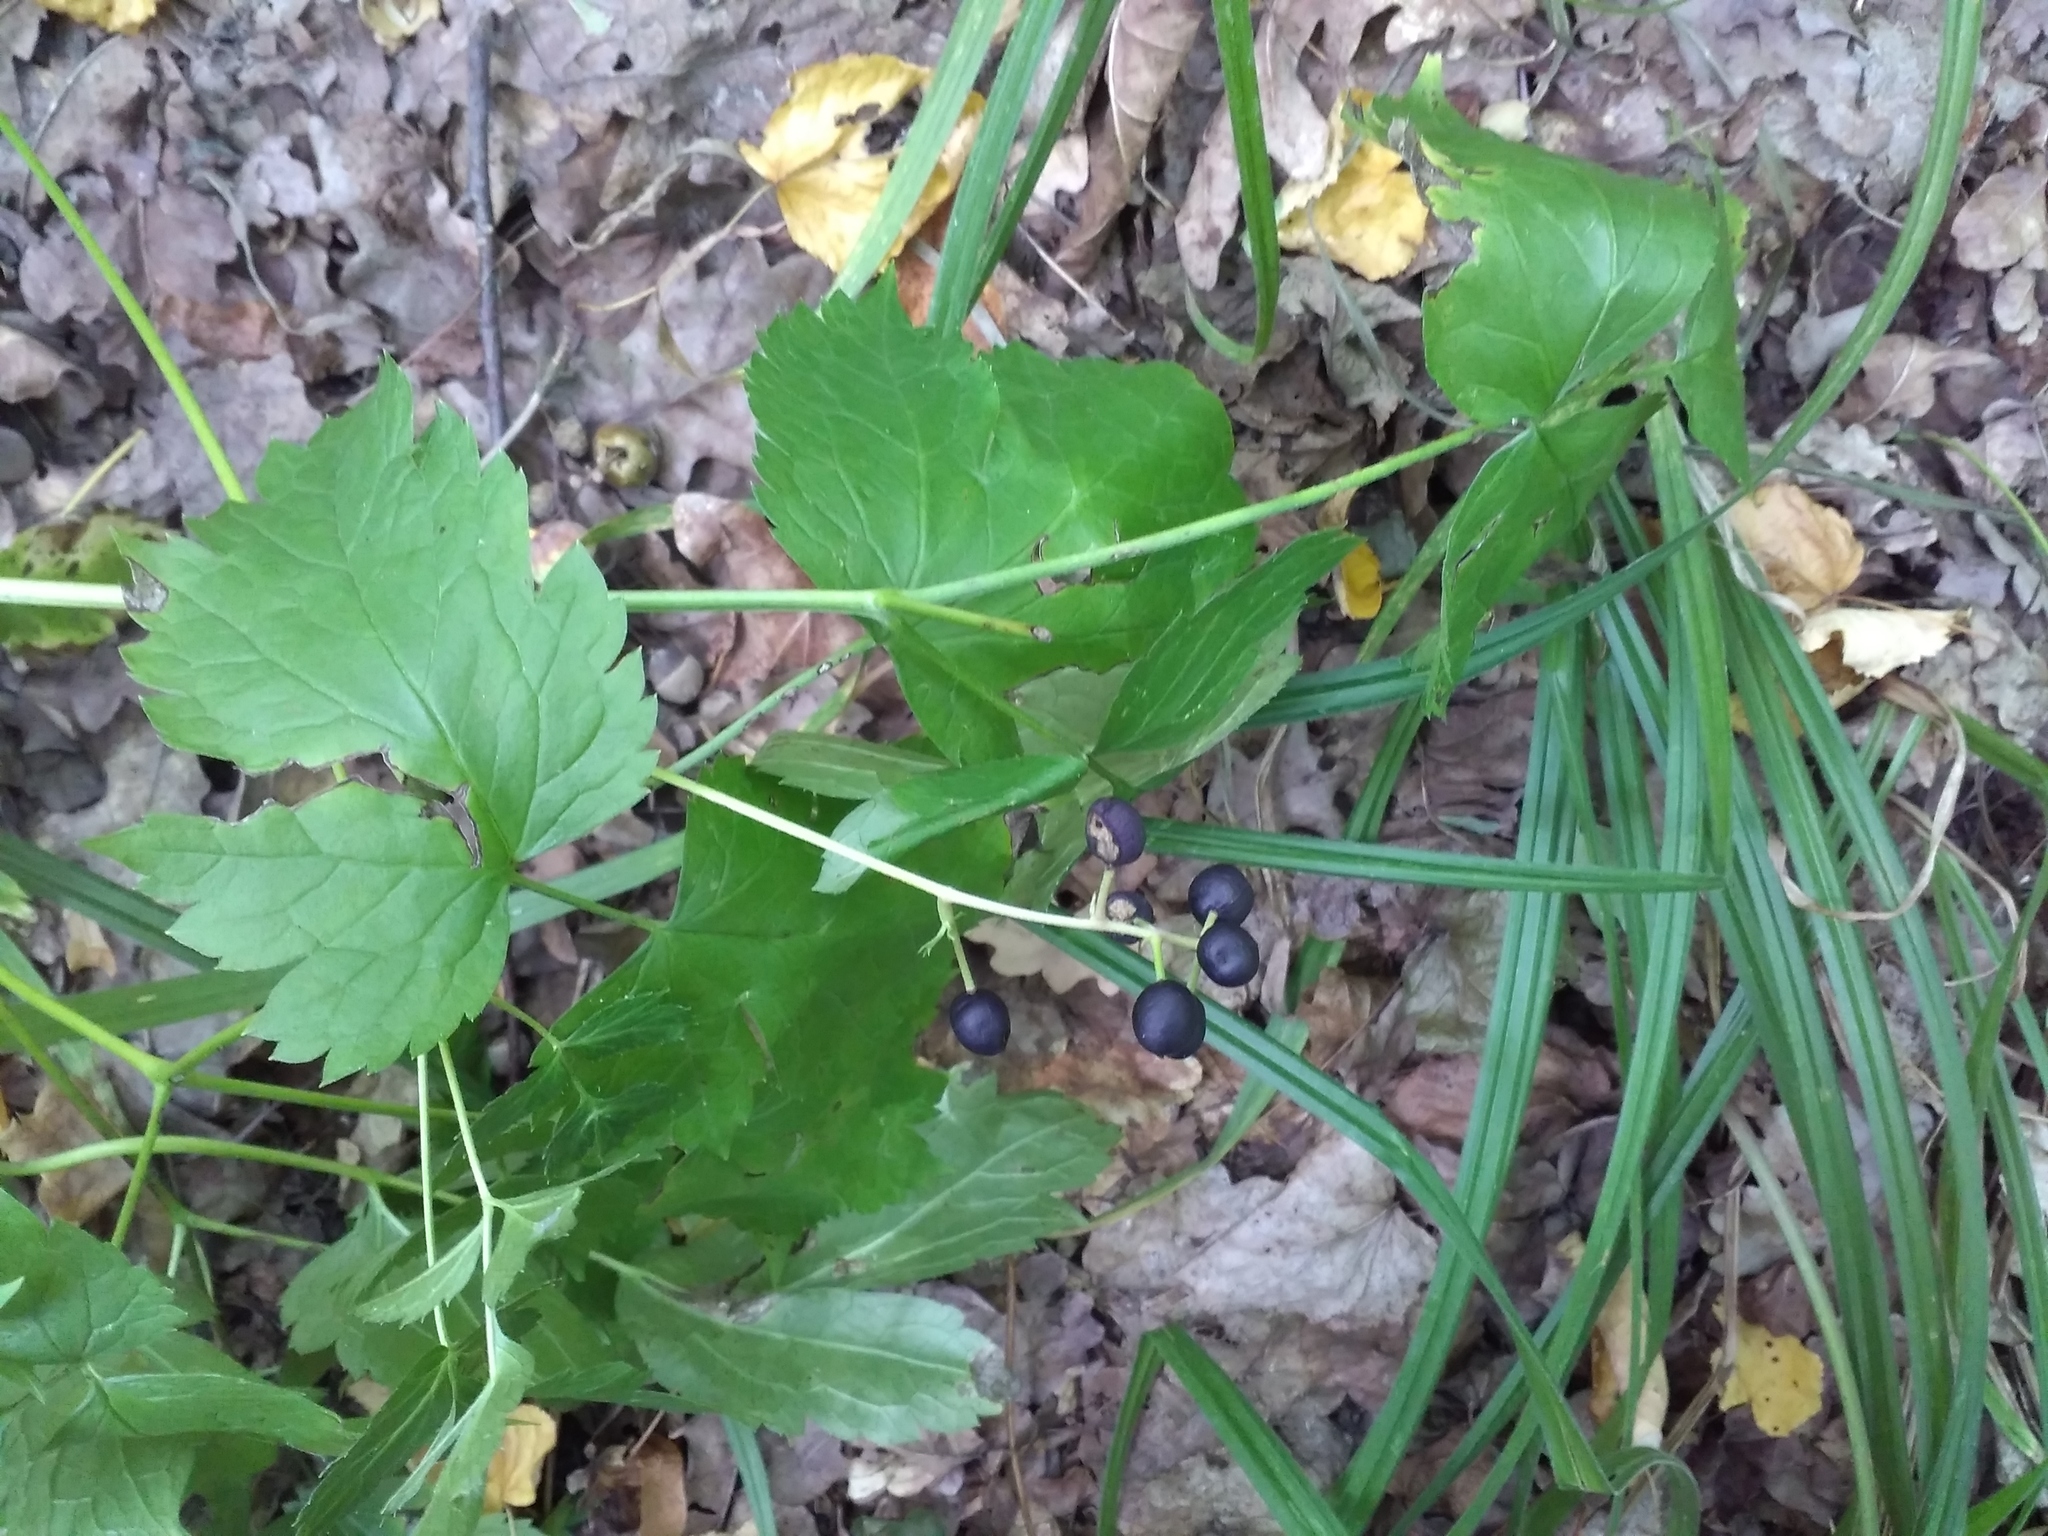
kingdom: Plantae
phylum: Tracheophyta
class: Magnoliopsida
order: Ranunculales
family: Ranunculaceae
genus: Actaea
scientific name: Actaea spicata
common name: Baneberry
